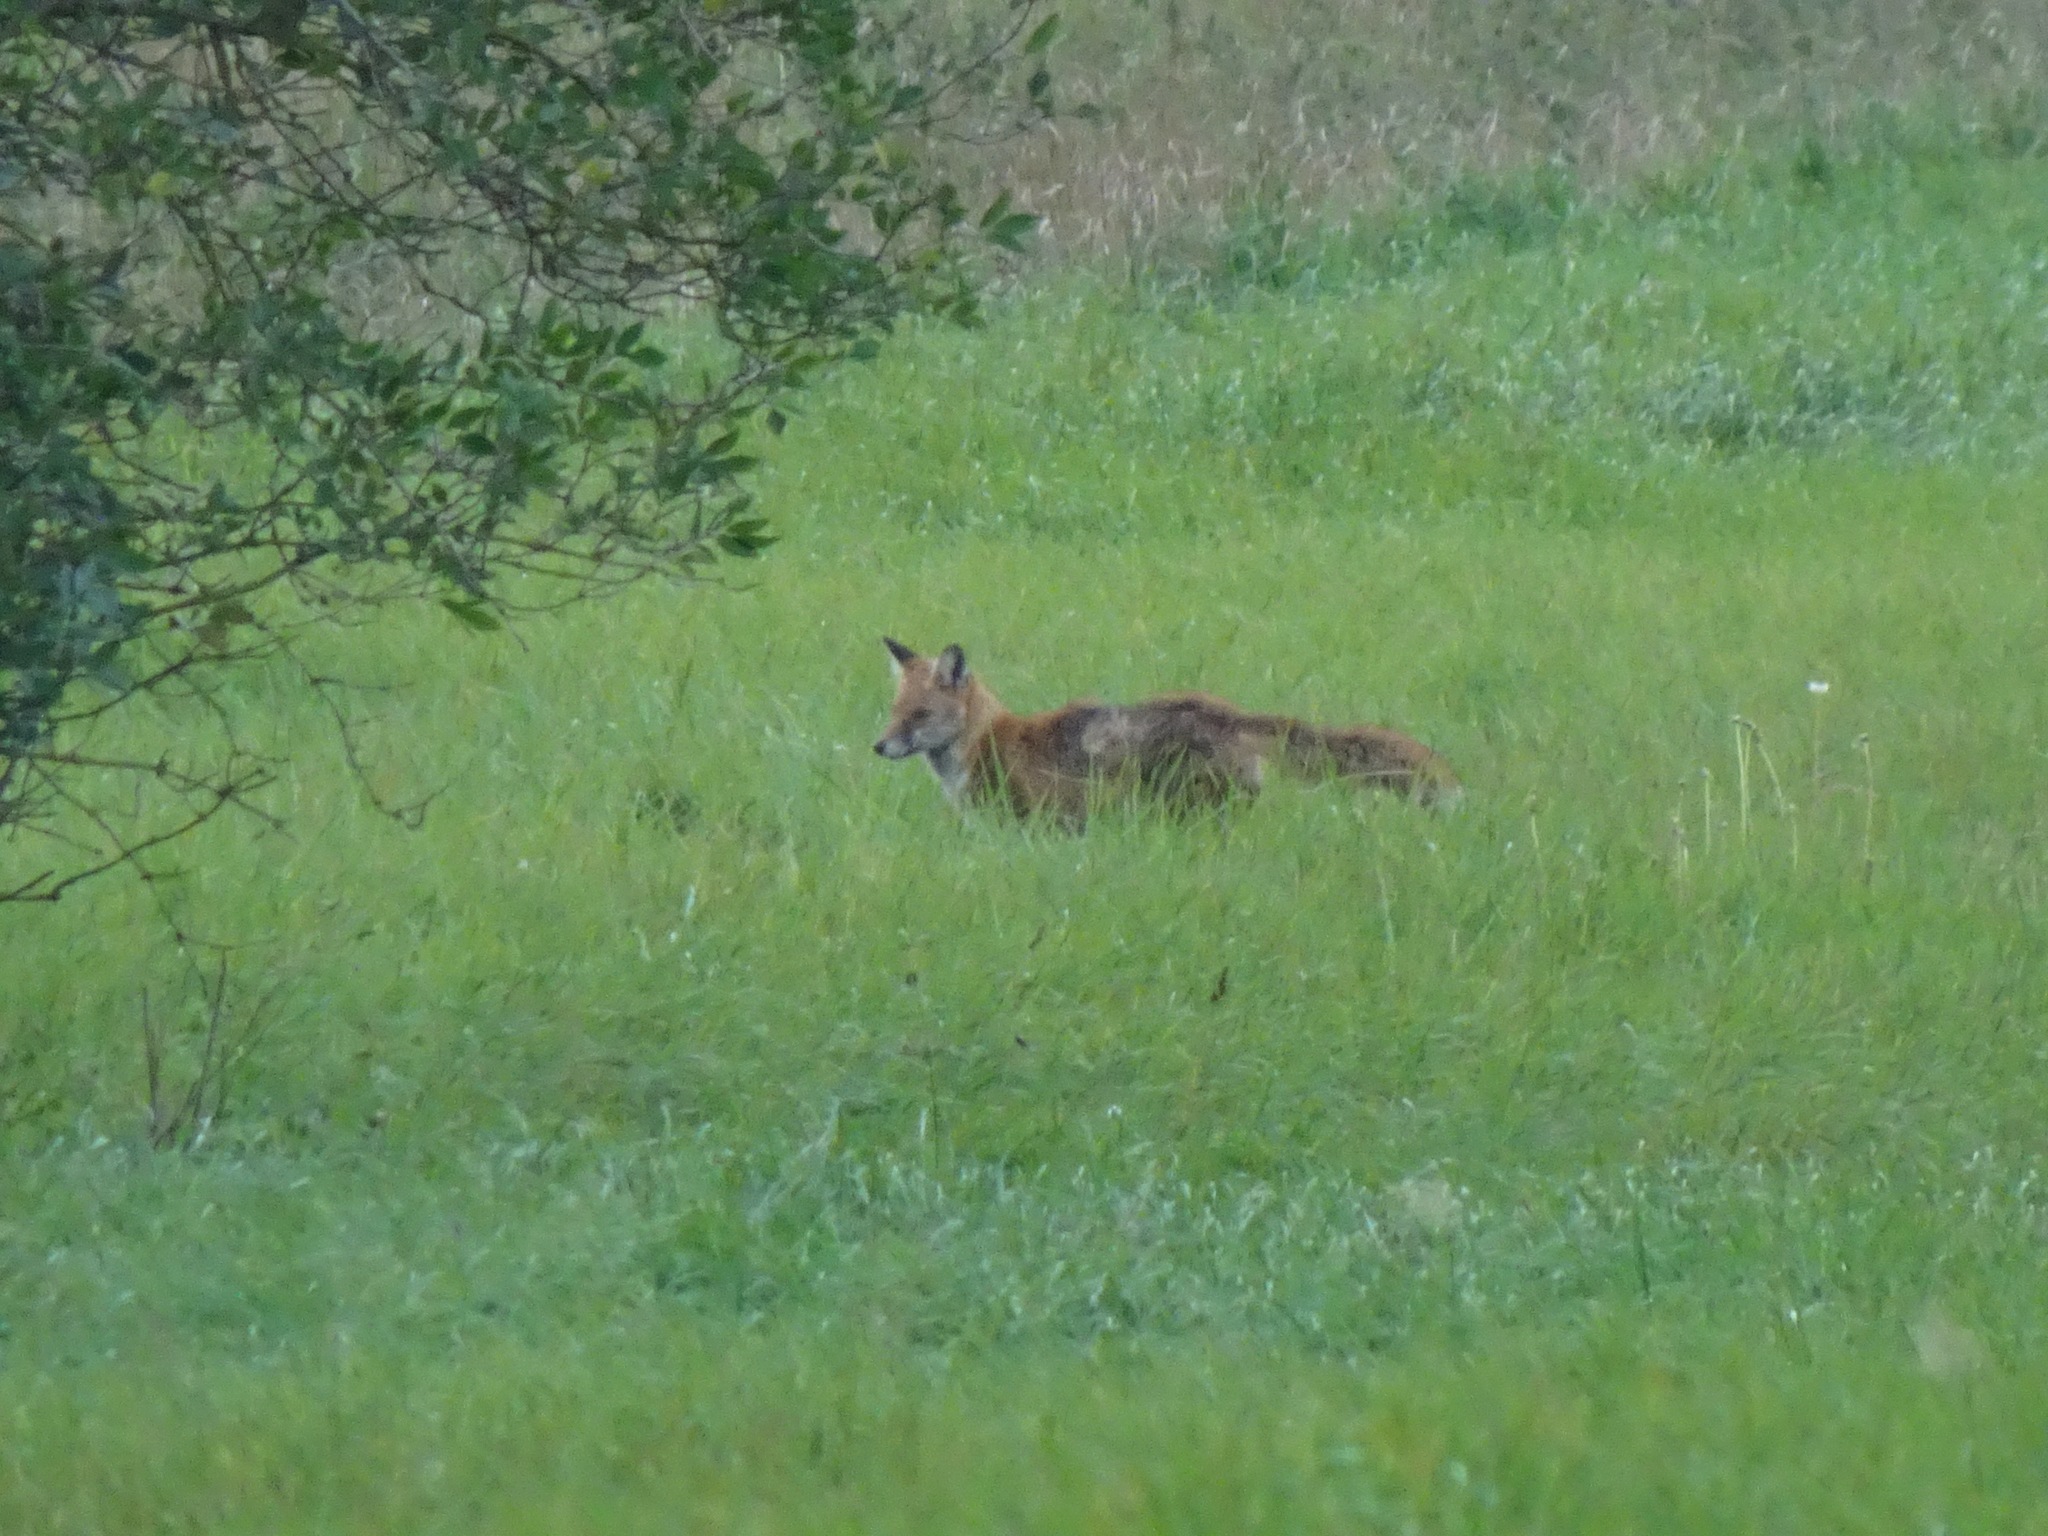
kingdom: Animalia
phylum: Chordata
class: Mammalia
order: Carnivora
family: Canidae
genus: Vulpes
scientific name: Vulpes vulpes
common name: Red fox
